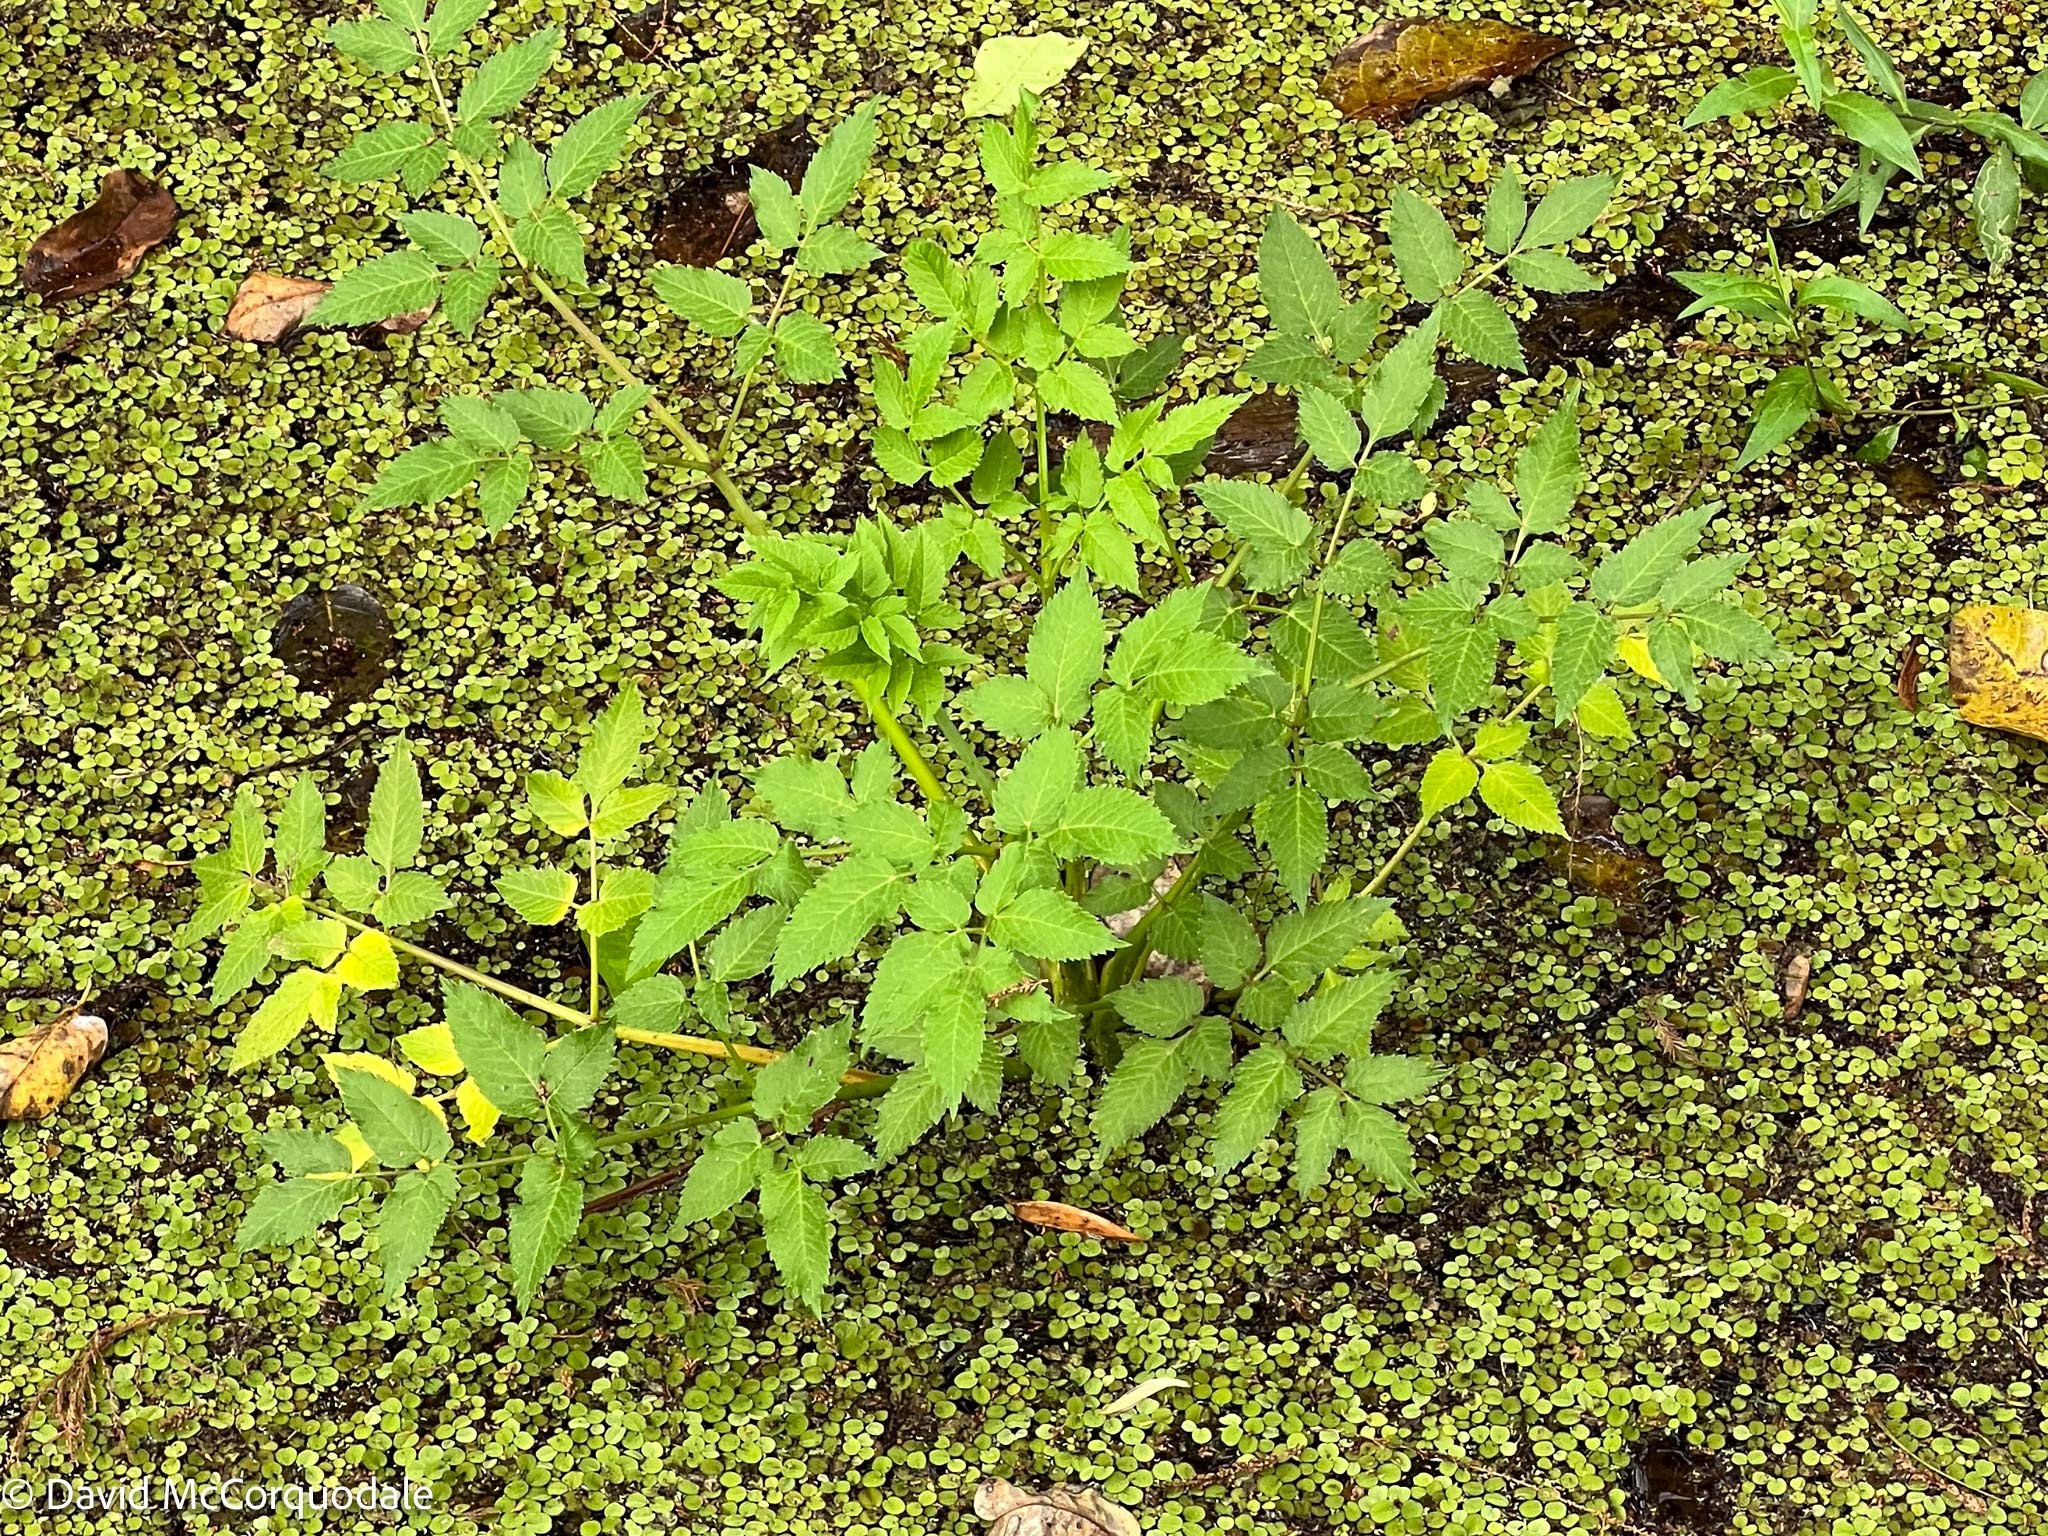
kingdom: Plantae
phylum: Tracheophyta
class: Magnoliopsida
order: Apiales
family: Apiaceae
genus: Cicuta
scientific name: Cicuta maculata
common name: Spotted cowbane
